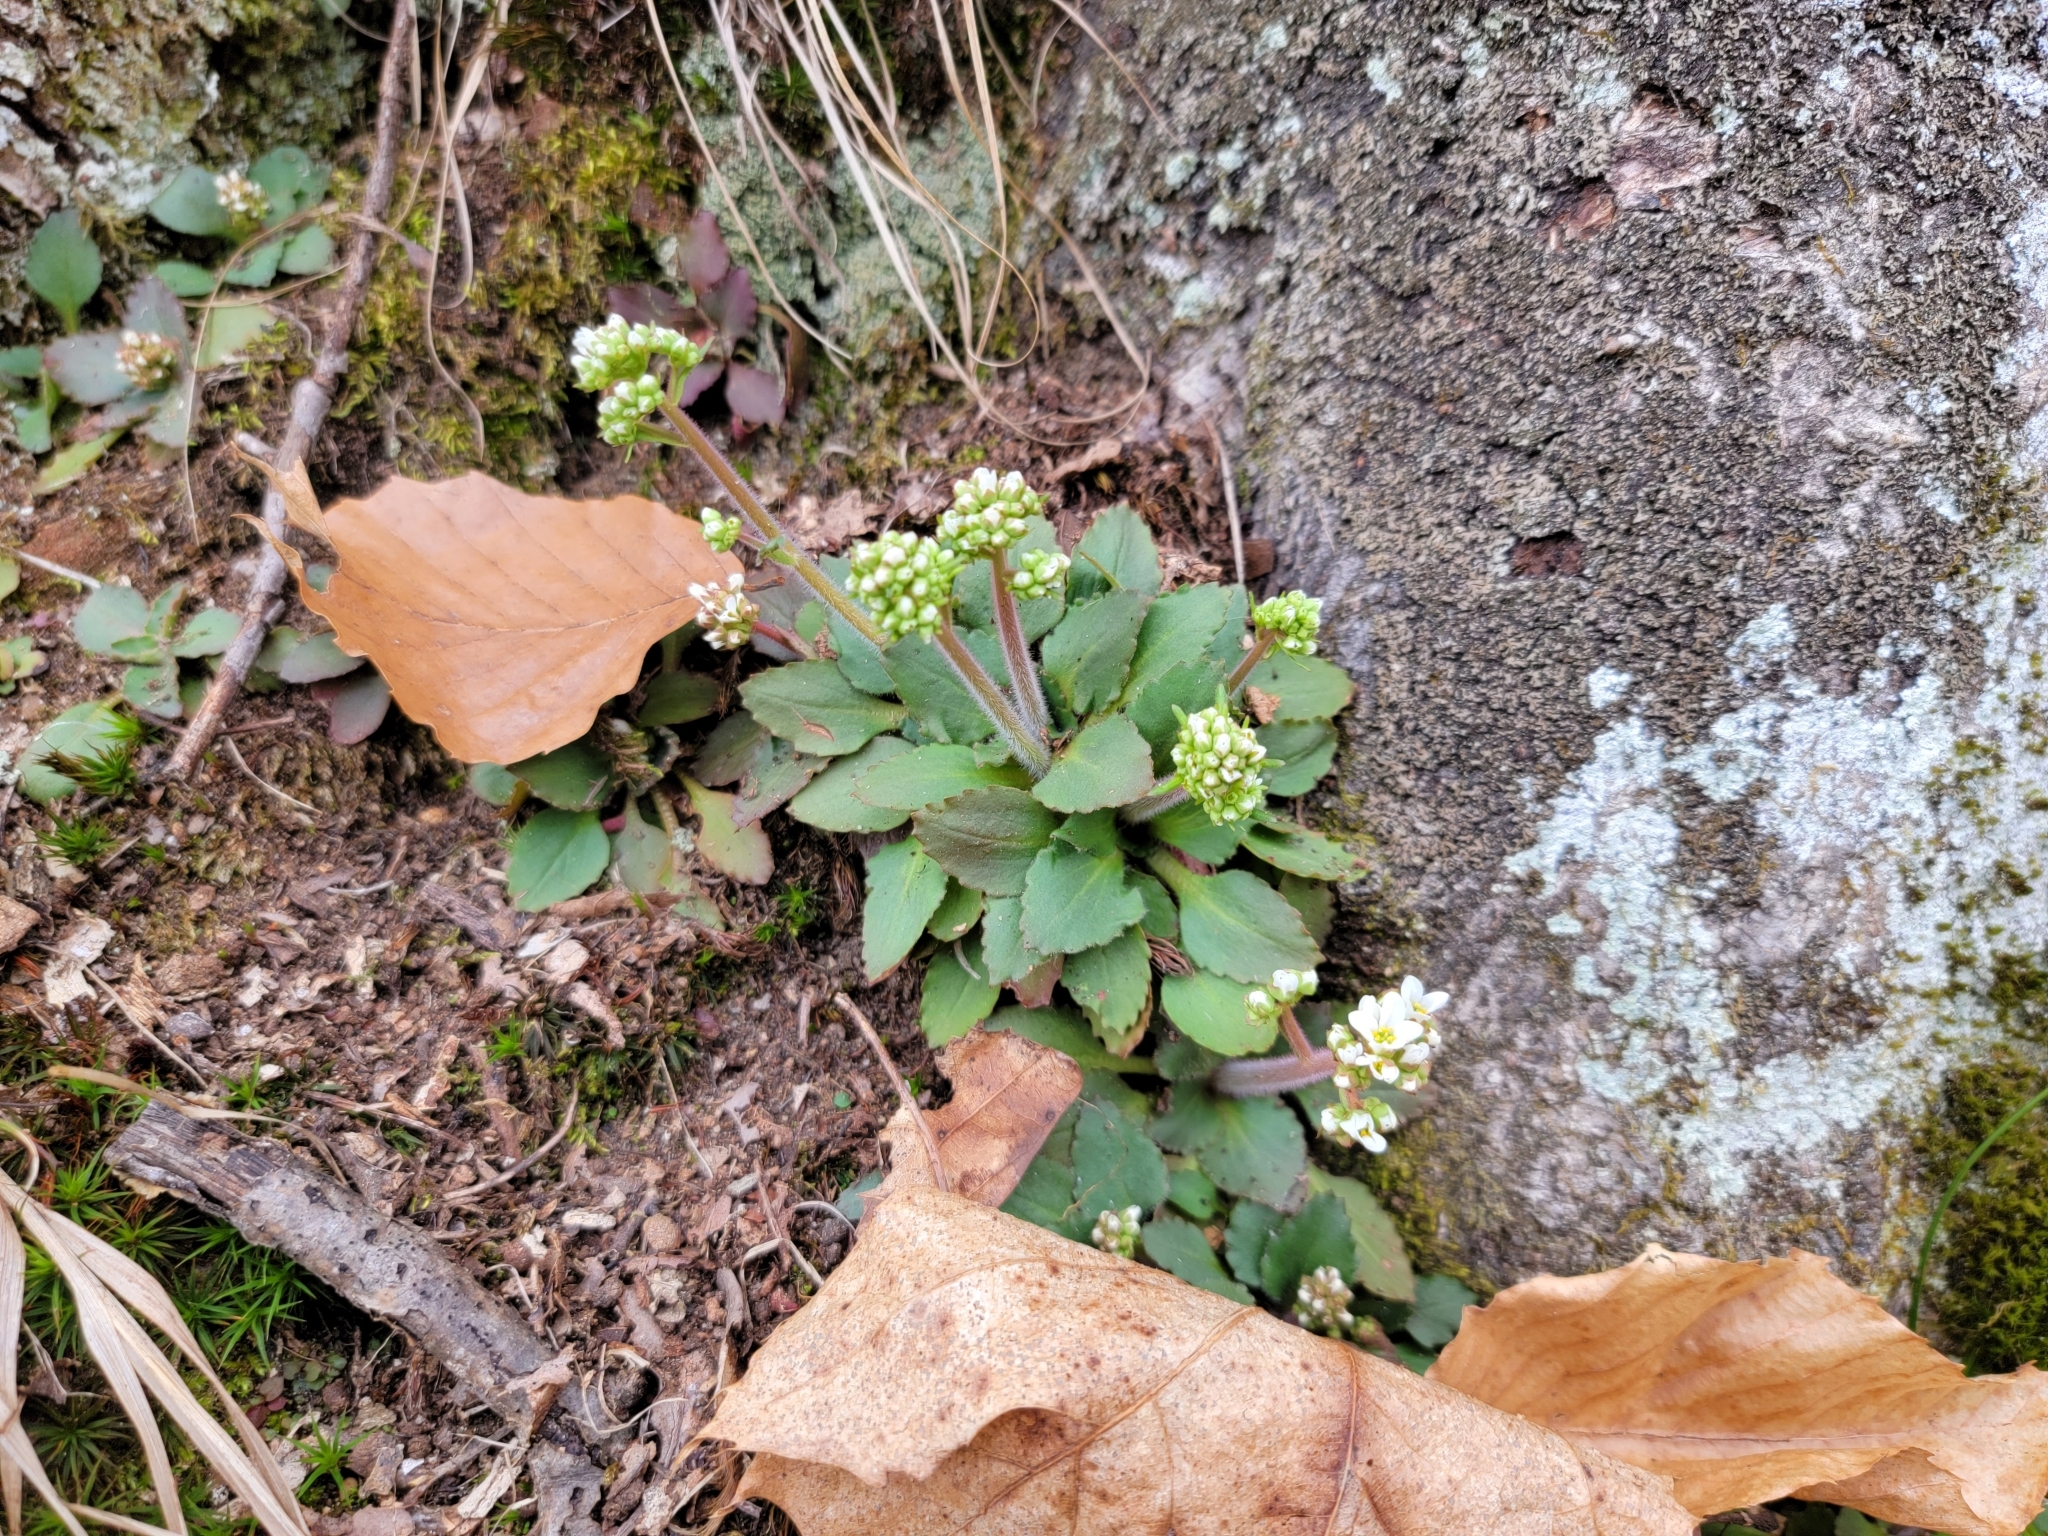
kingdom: Plantae
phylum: Tracheophyta
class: Magnoliopsida
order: Saxifragales
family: Saxifragaceae
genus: Micranthes
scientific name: Micranthes virginiensis
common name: Early saxifrage
